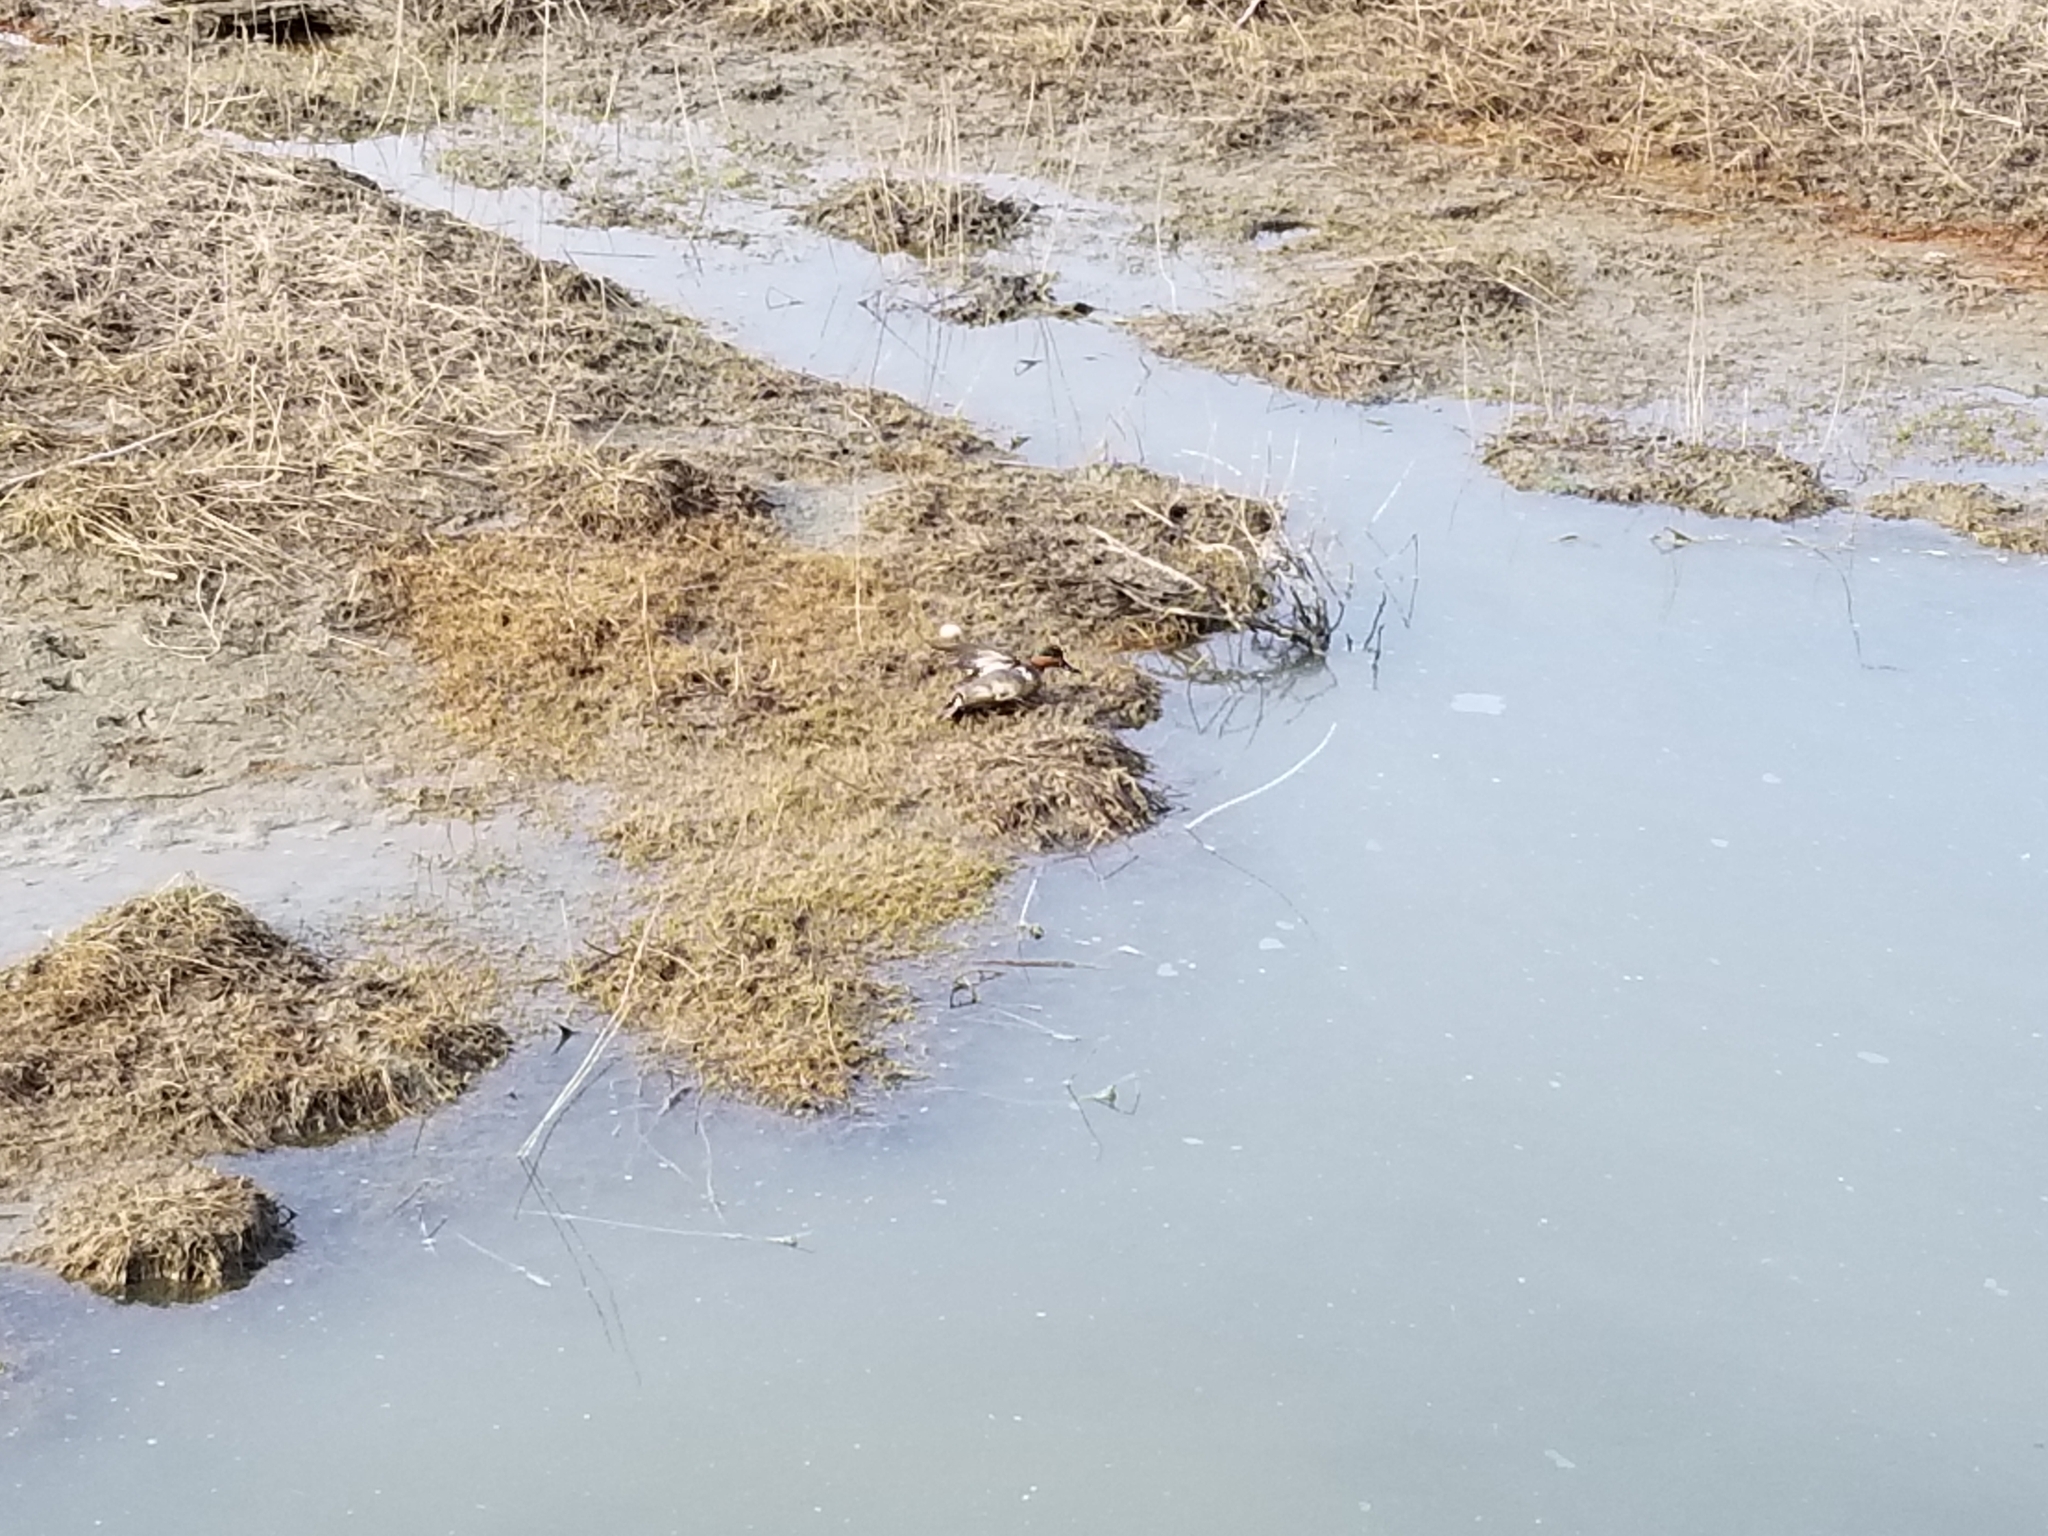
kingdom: Animalia
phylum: Chordata
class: Aves
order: Anseriformes
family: Anatidae
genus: Anas
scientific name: Anas crecca
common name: Eurasian teal
